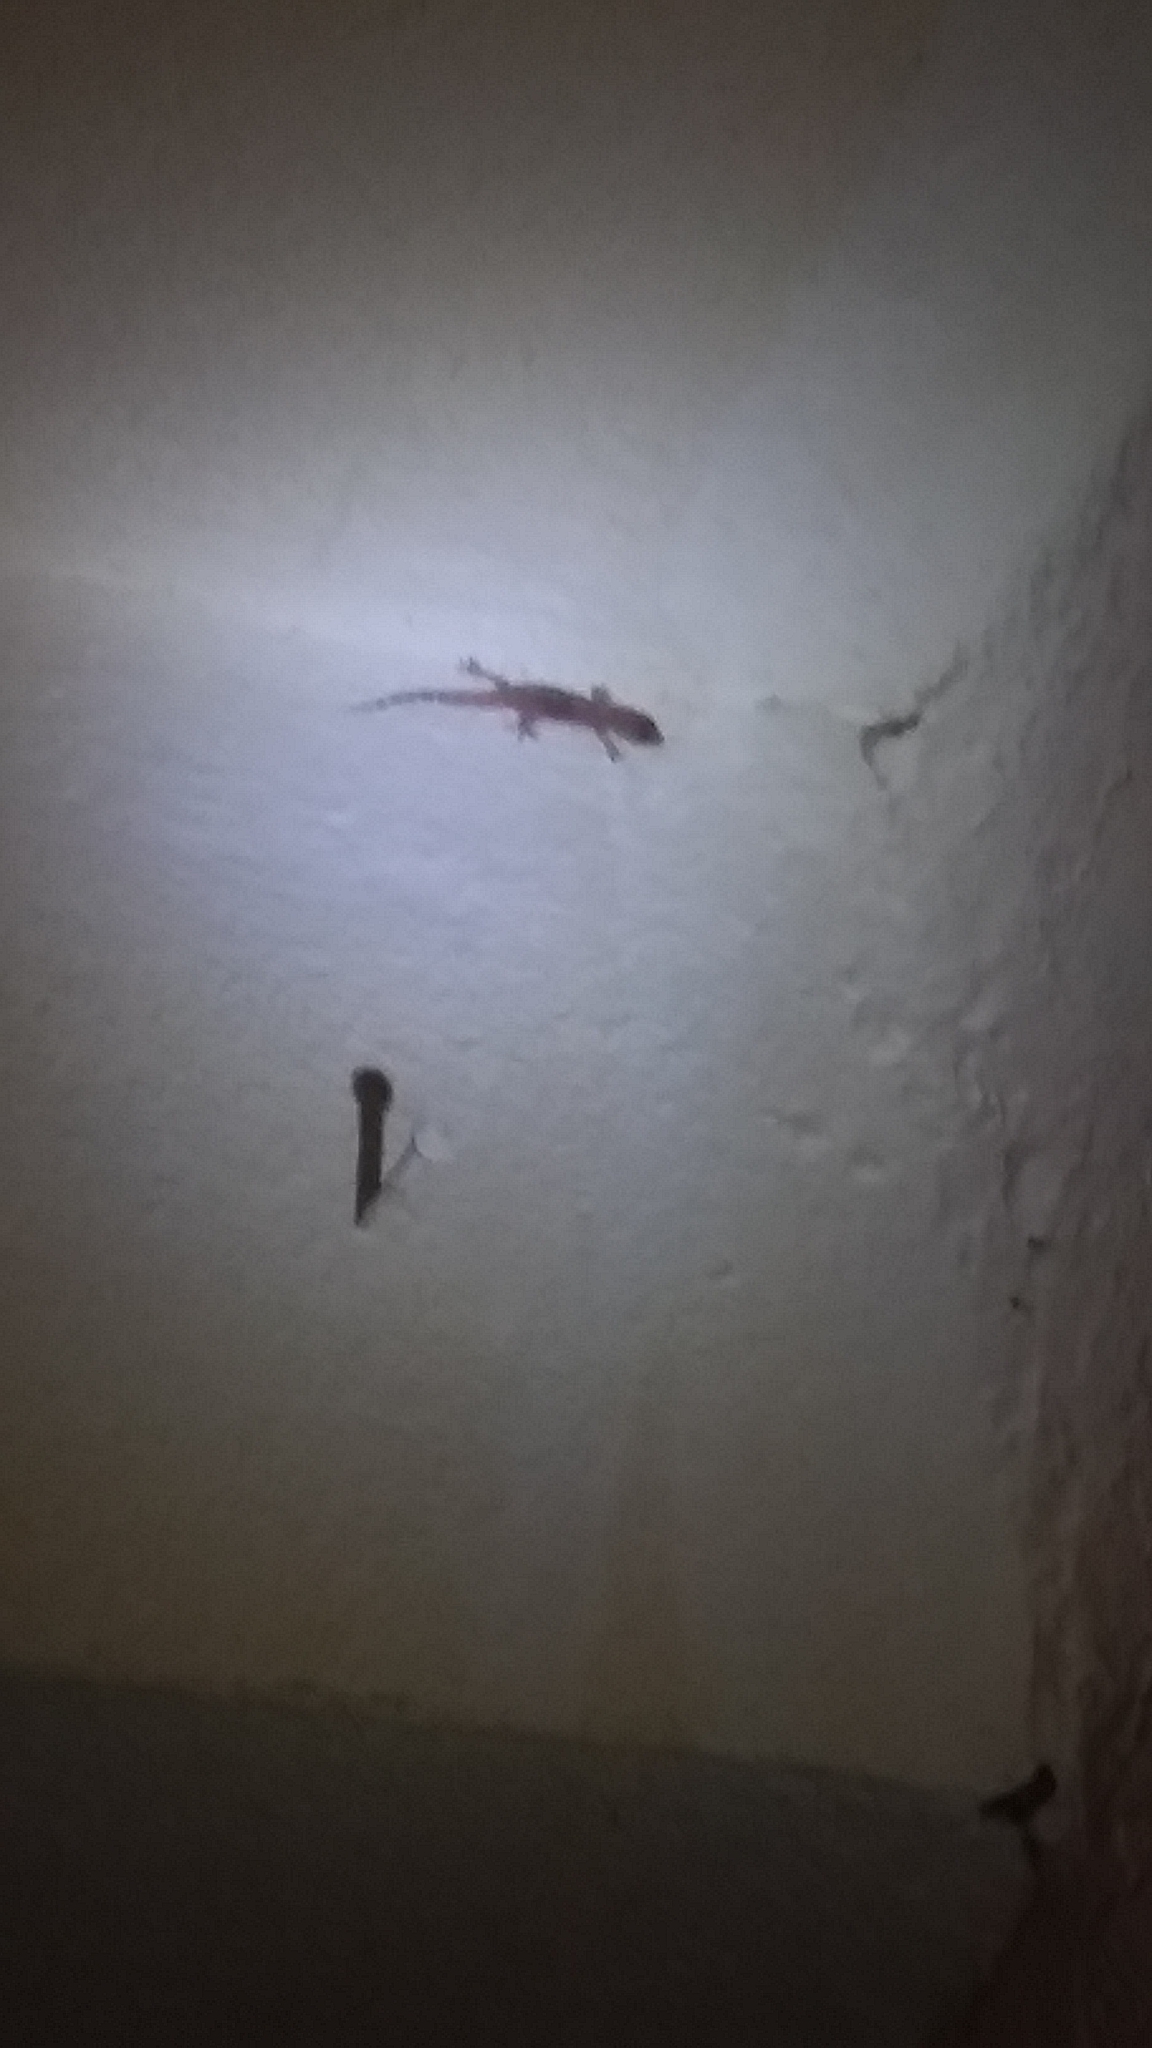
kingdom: Animalia
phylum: Chordata
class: Squamata
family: Gekkonidae
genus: Hemidactylus
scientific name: Hemidactylus turcicus
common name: Turkish gecko
